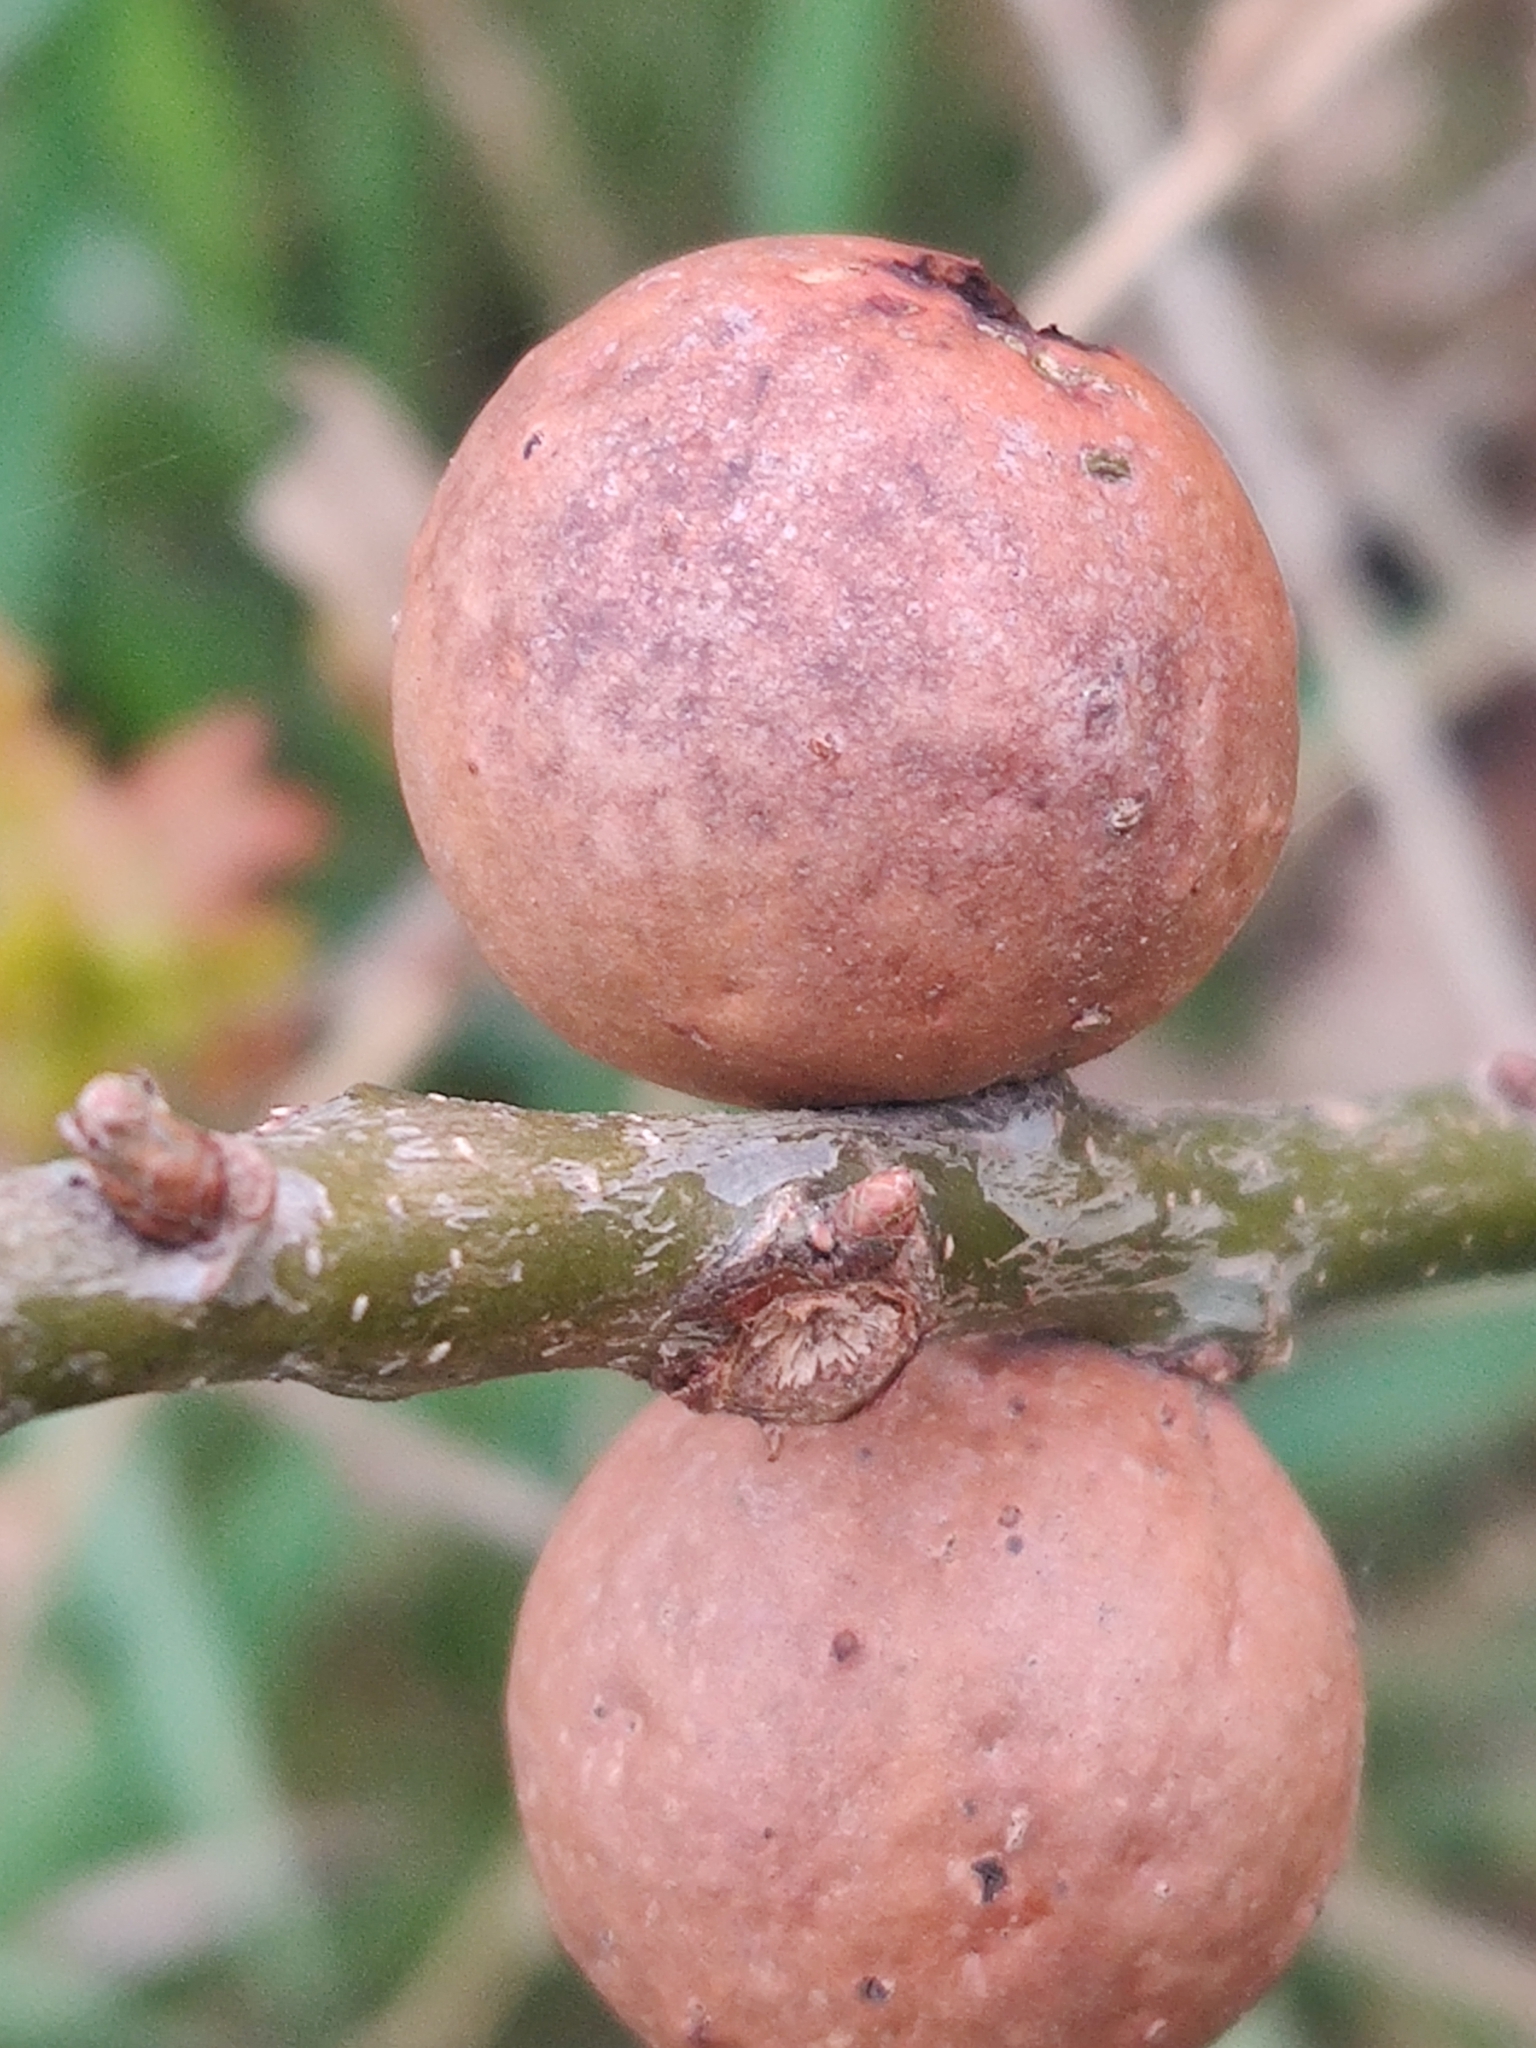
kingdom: Animalia
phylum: Arthropoda
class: Insecta
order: Hymenoptera
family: Cynipidae
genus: Andricus
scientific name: Andricus kollari
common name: Marble gall
